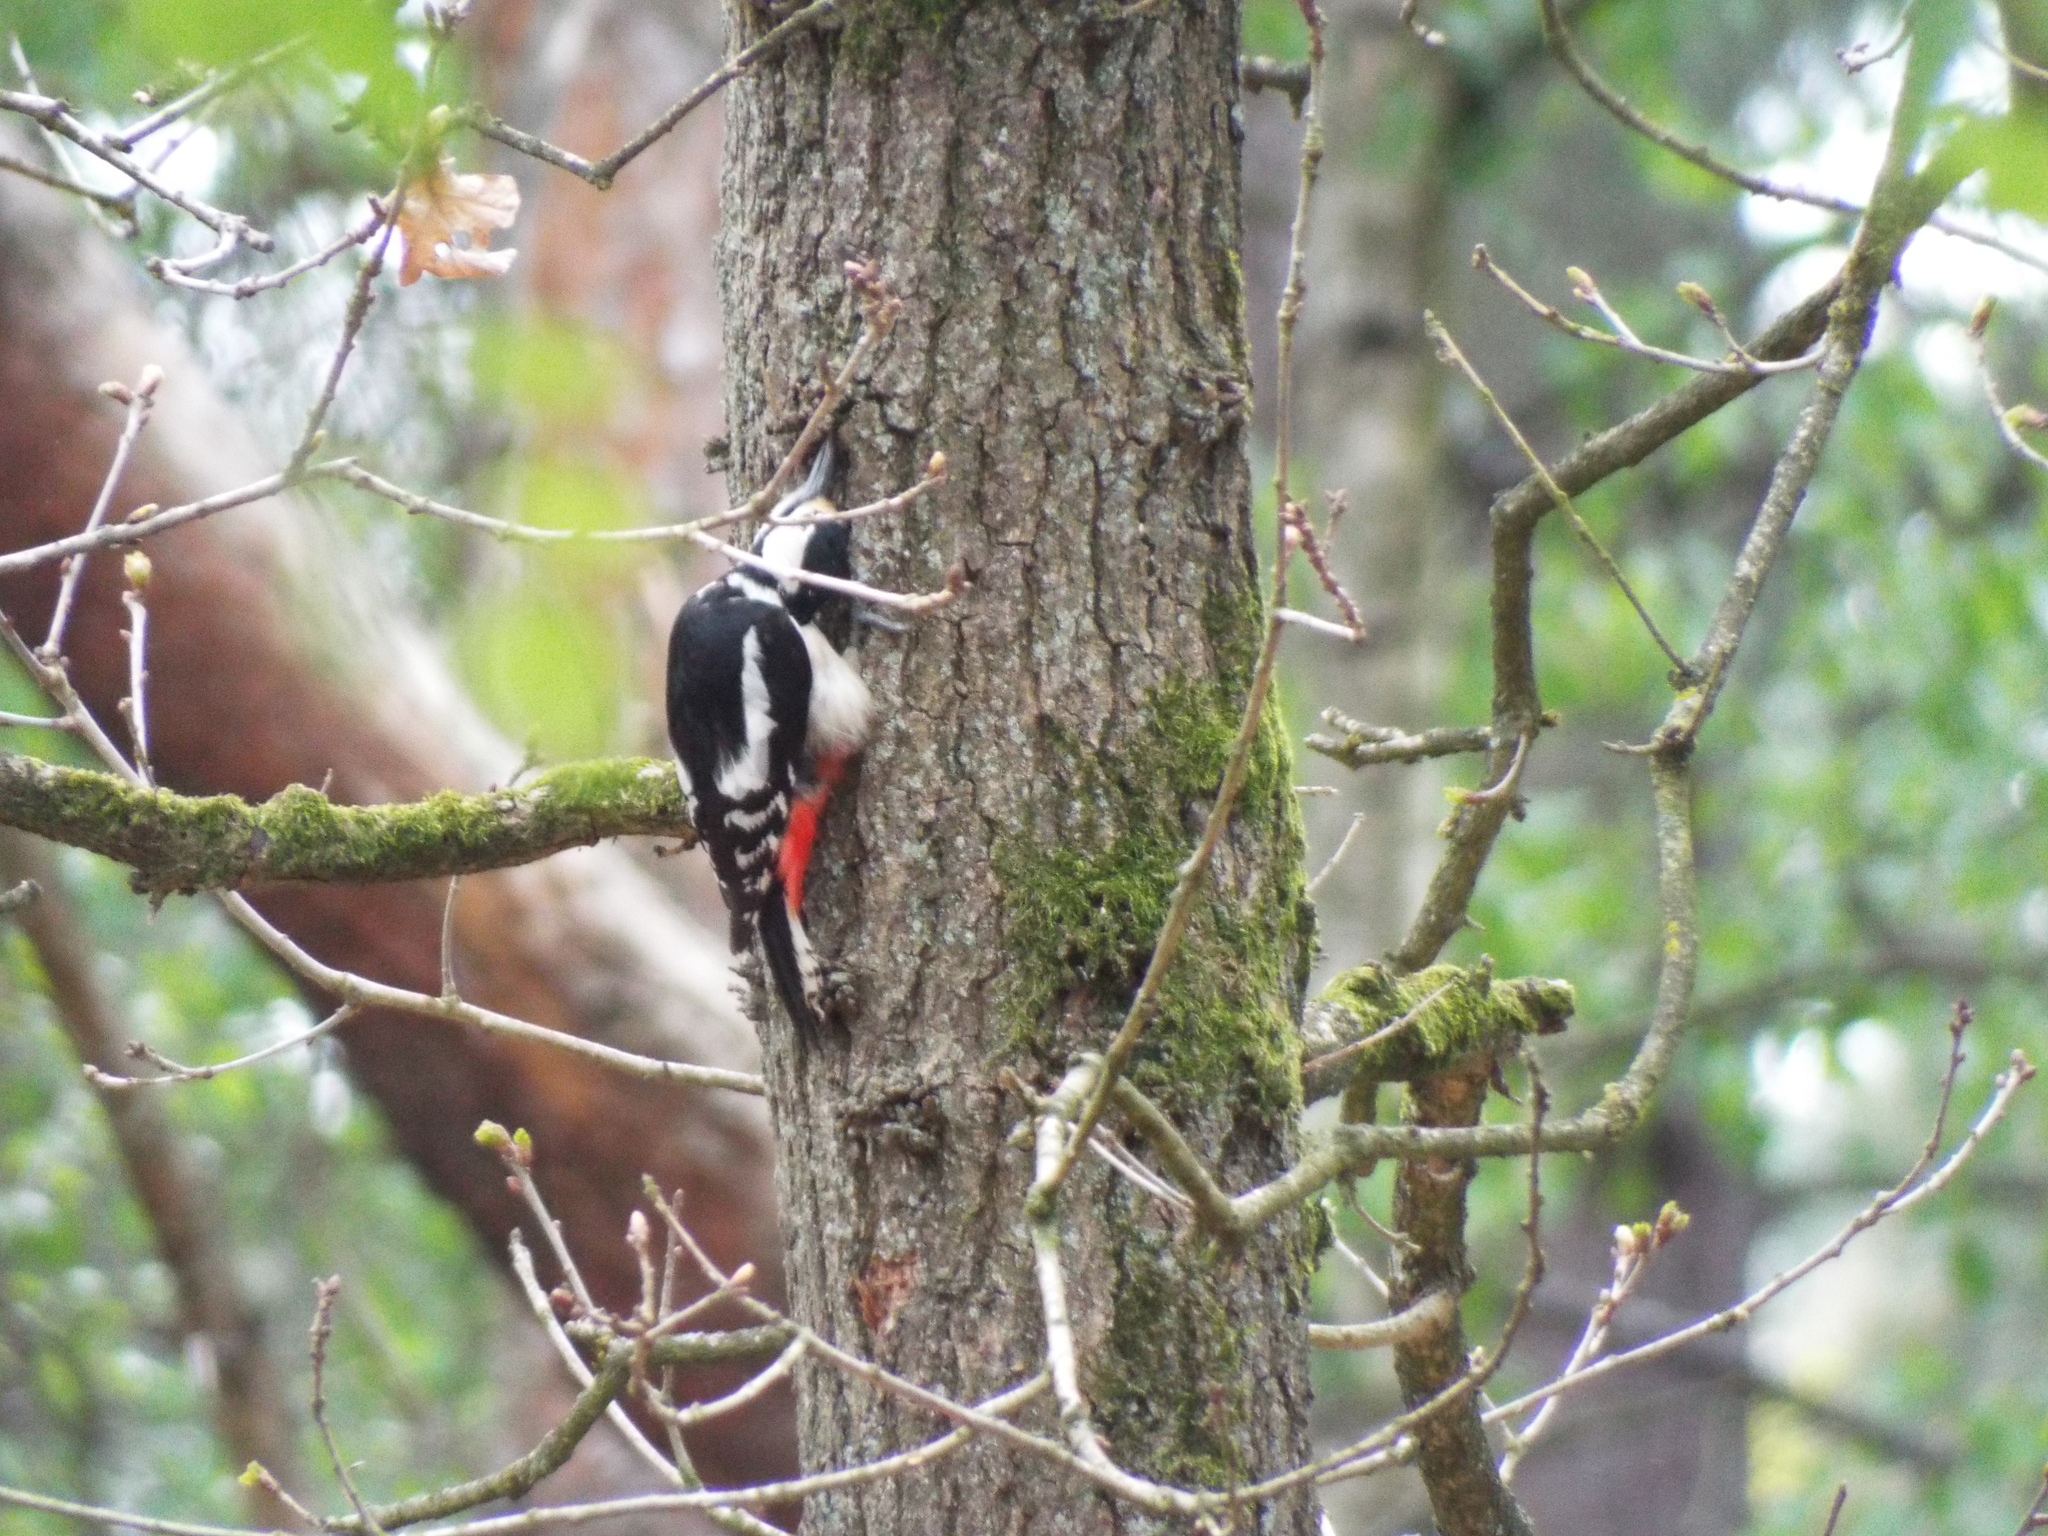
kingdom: Animalia
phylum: Chordata
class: Aves
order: Piciformes
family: Picidae
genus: Dendrocopos
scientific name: Dendrocopos major
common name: Great spotted woodpecker
